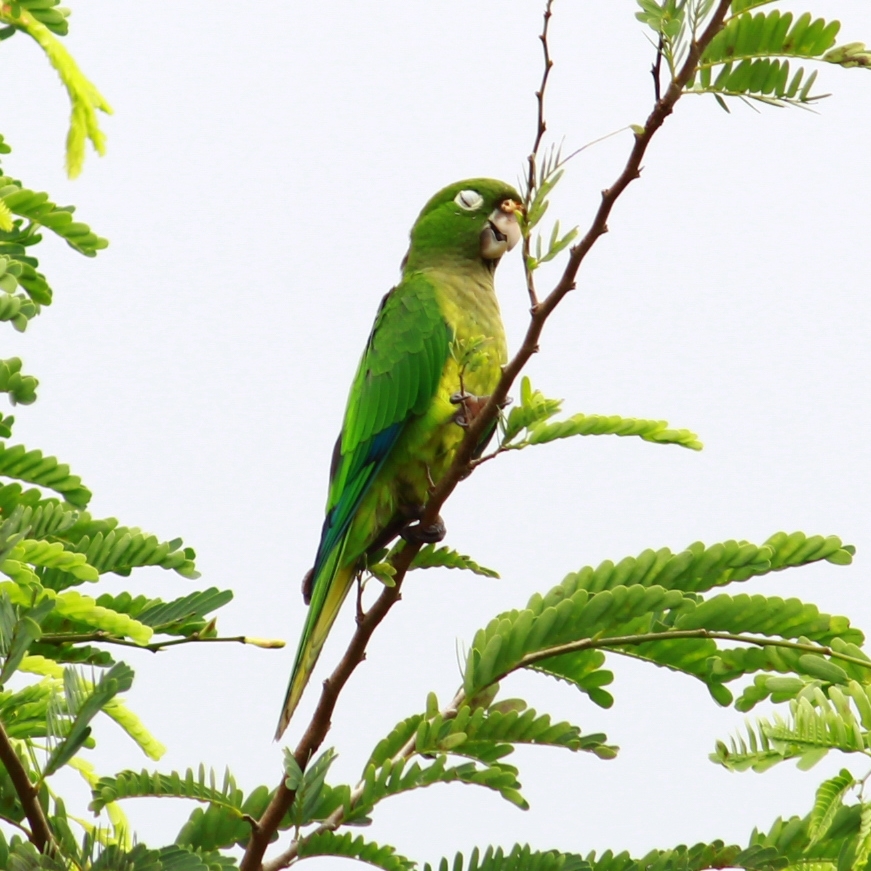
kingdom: Animalia
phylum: Chordata
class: Aves
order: Psittaciformes
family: Psittacidae
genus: Aratinga
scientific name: Aratinga nana
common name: Olive-throated parakeet
